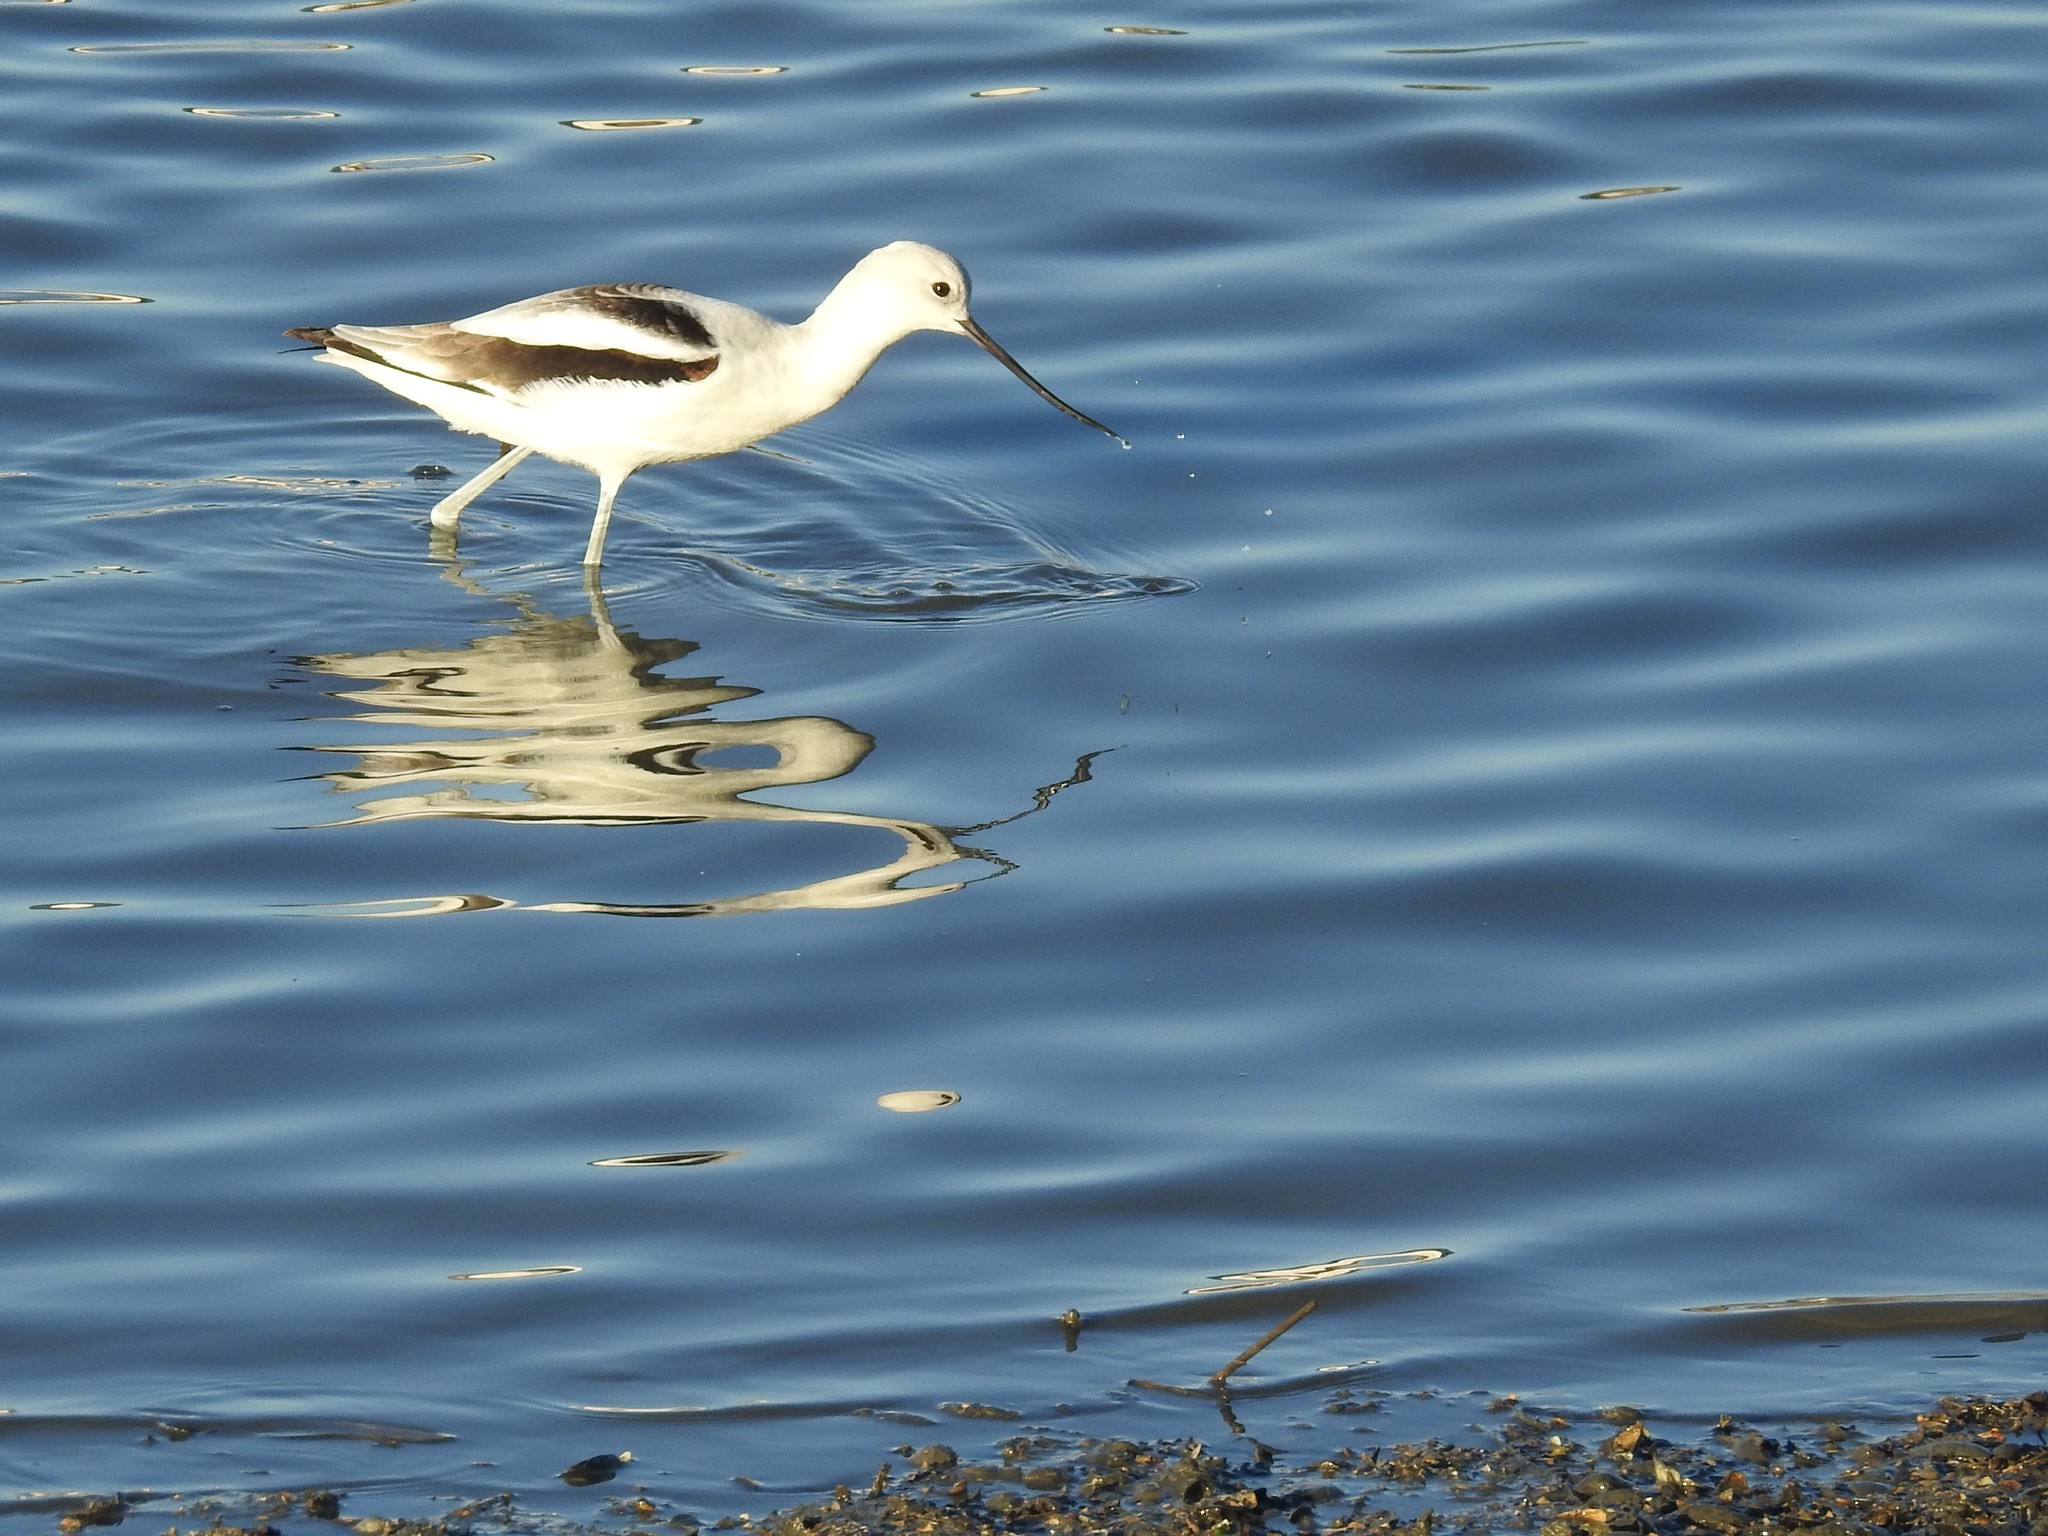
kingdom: Animalia
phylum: Chordata
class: Aves
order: Charadriiformes
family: Recurvirostridae
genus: Recurvirostra
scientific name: Recurvirostra americana
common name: American avocet
